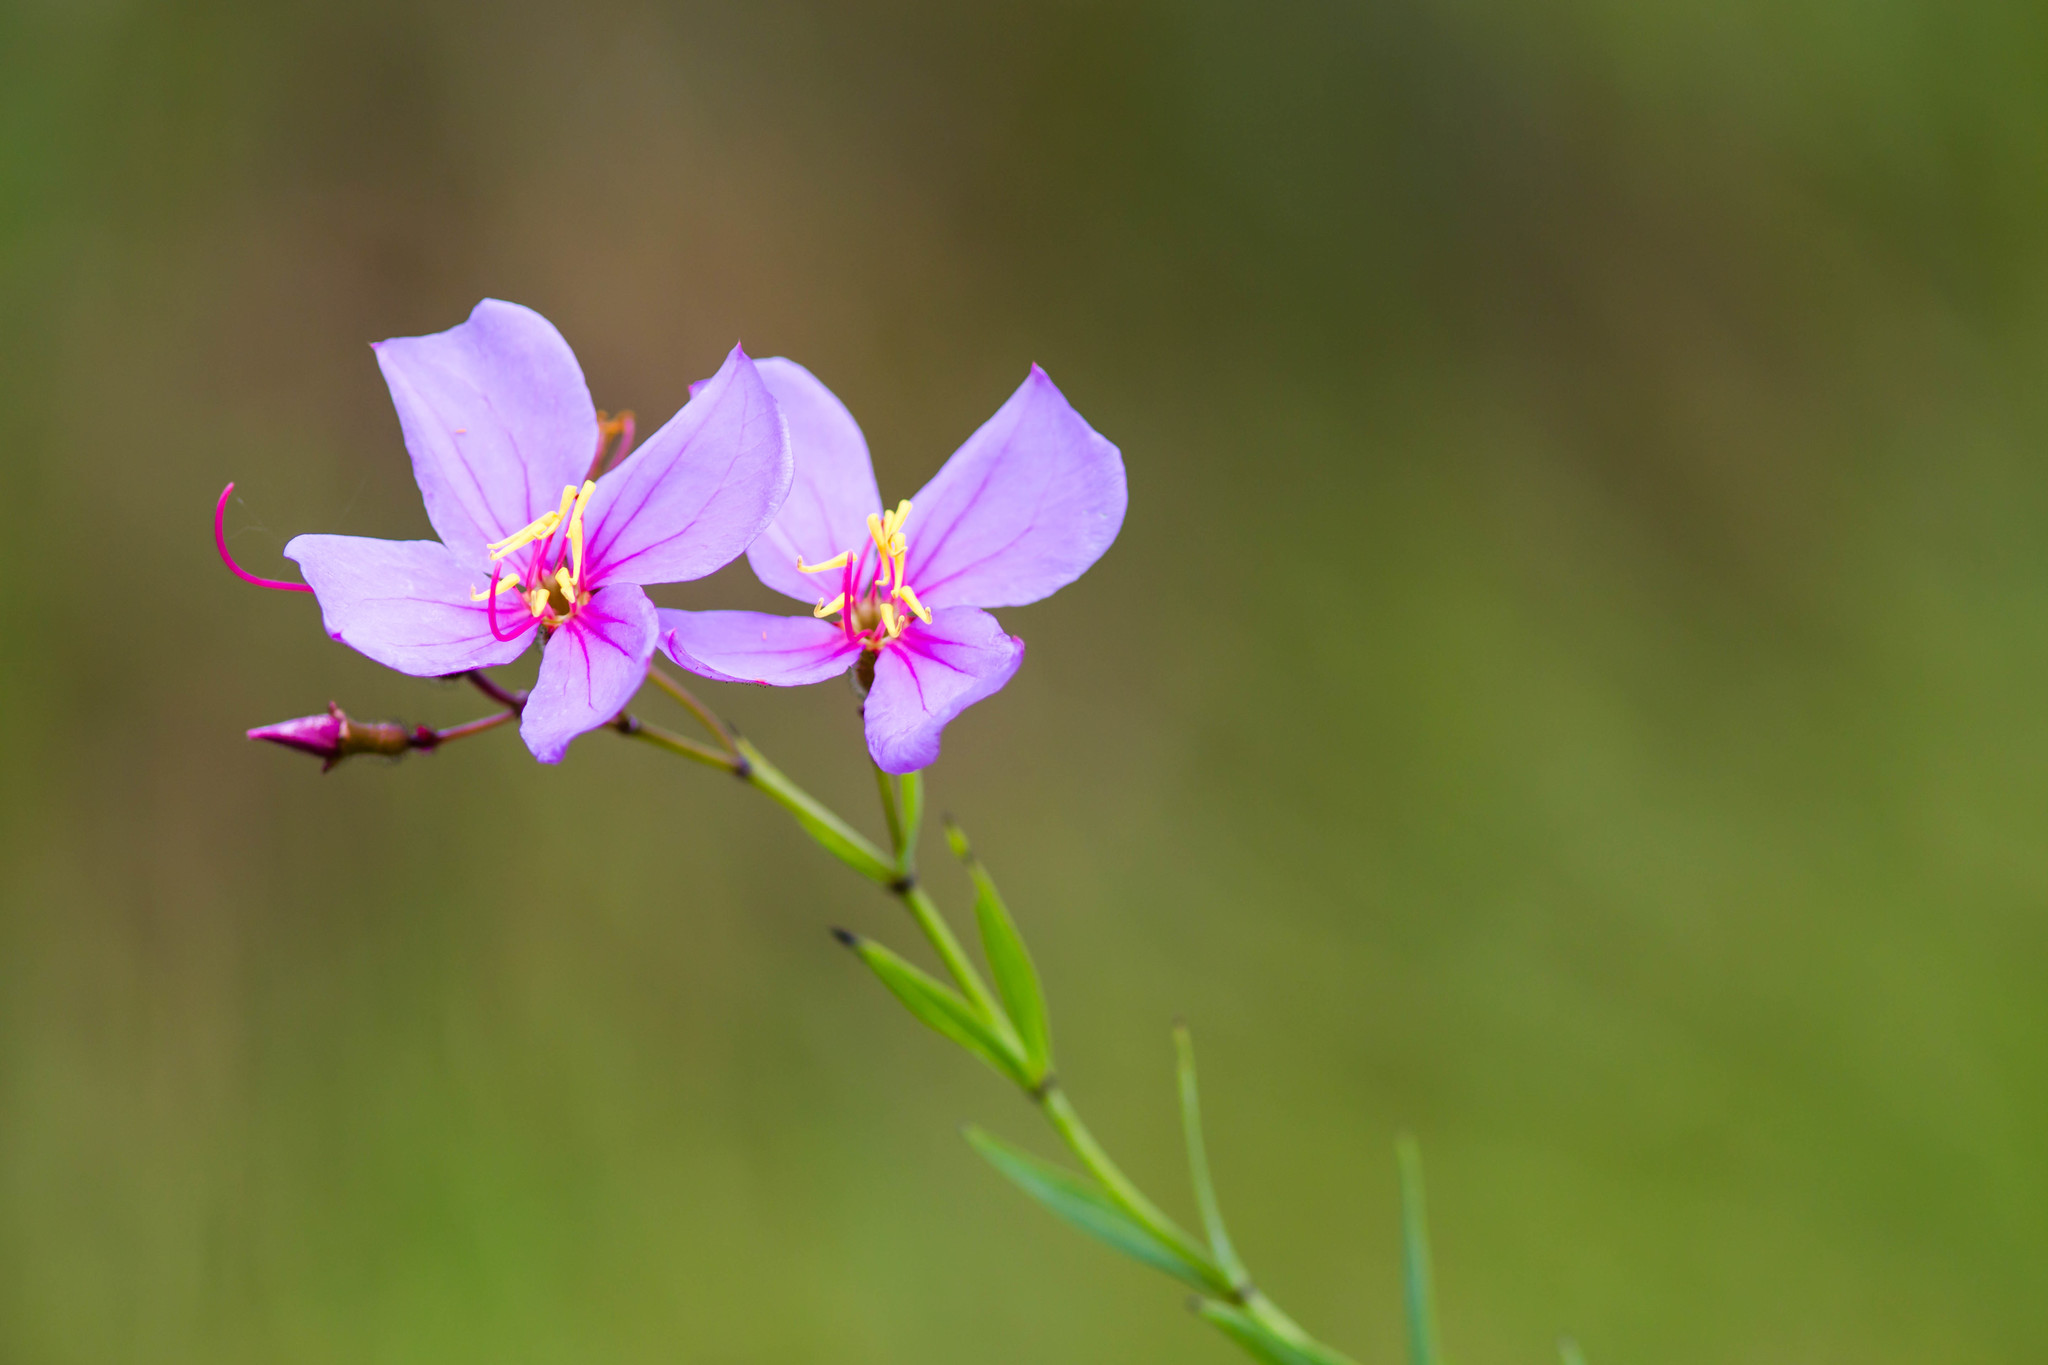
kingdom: Plantae
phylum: Tracheophyta
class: Magnoliopsida
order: Myrtales
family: Melastomataceae
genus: Rhexia
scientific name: Rhexia alifanus
